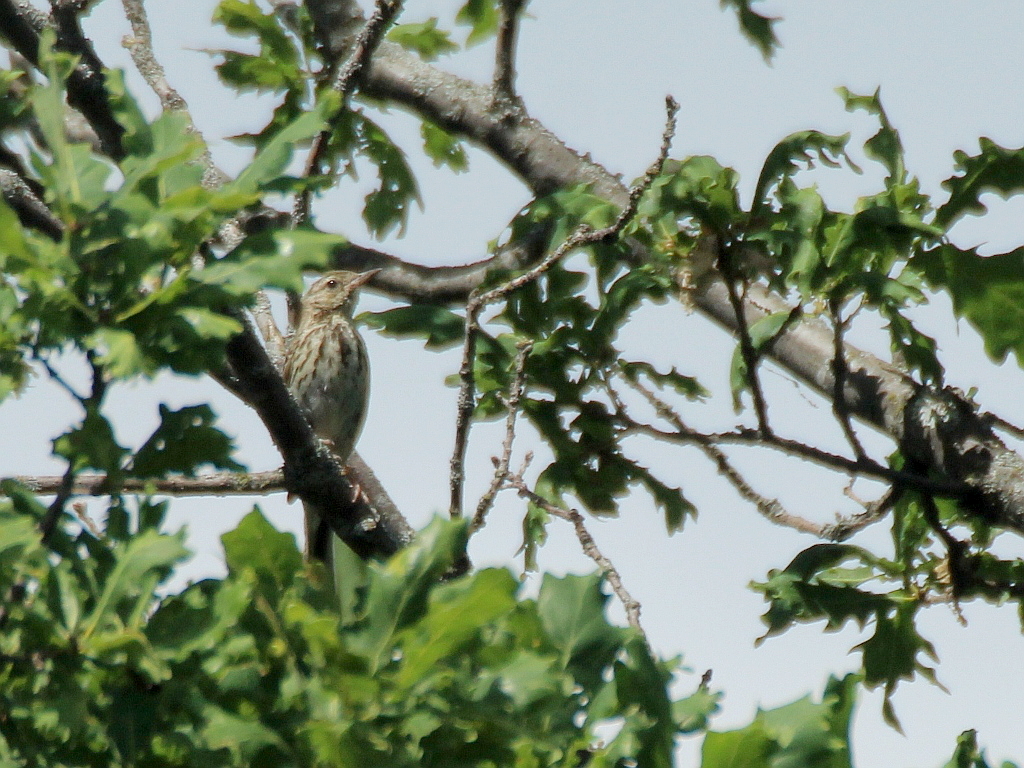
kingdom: Animalia
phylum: Chordata
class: Aves
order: Passeriformes
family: Motacillidae
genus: Anthus
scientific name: Anthus trivialis
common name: Tree pipit
